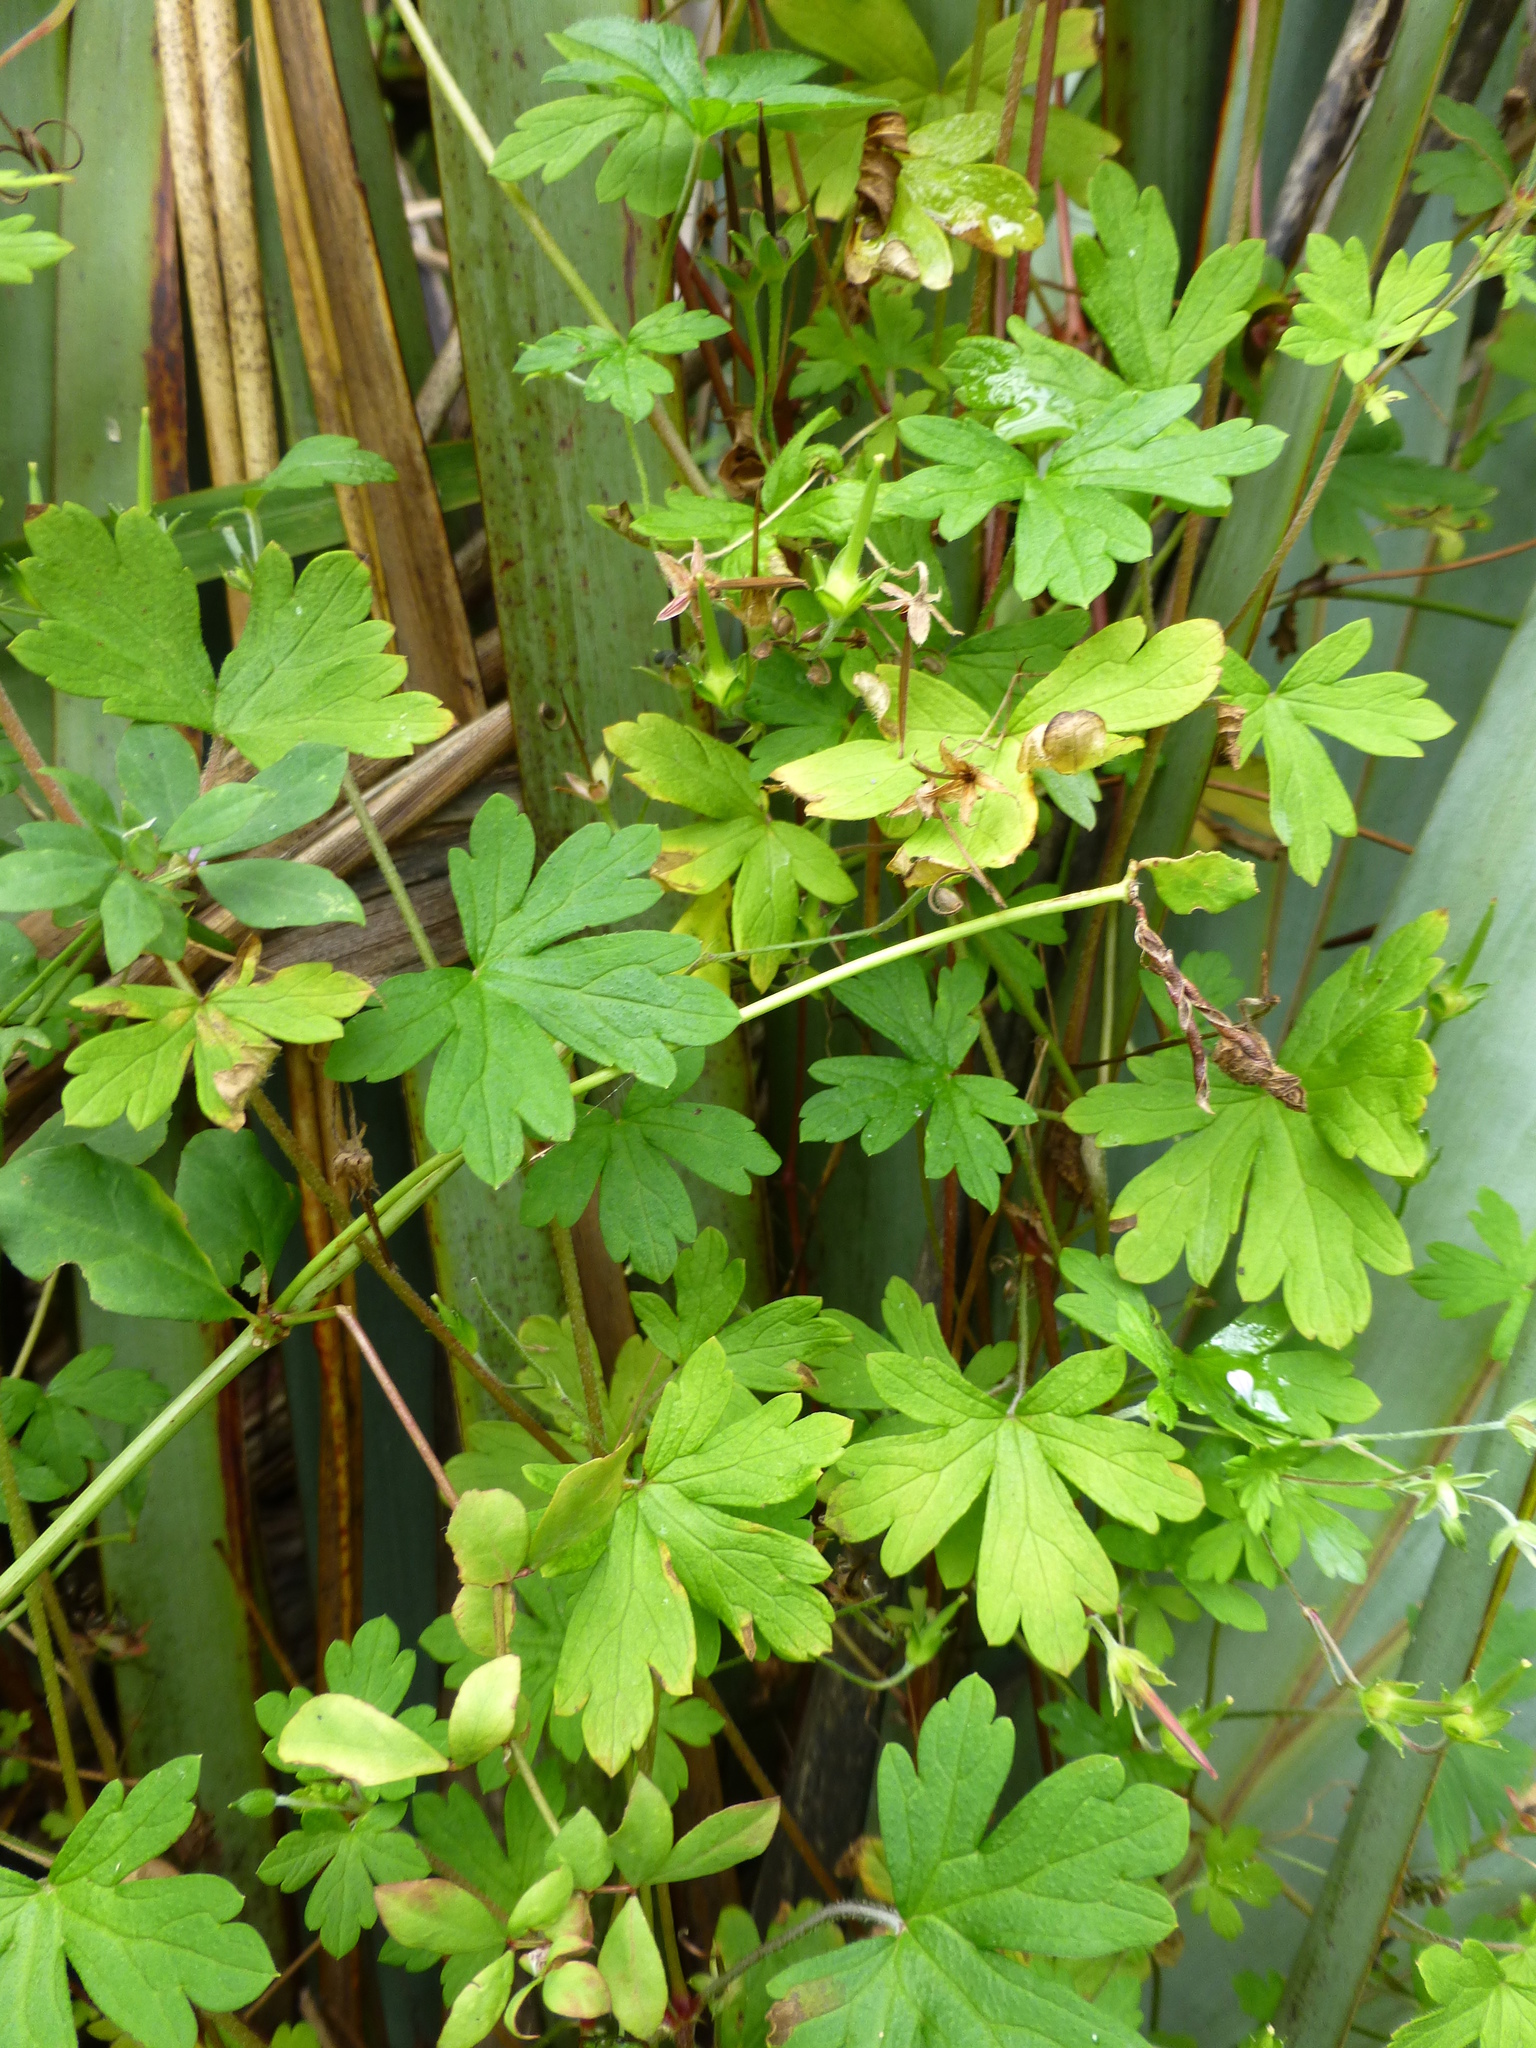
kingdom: Plantae
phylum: Tracheophyta
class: Magnoliopsida
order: Geraniales
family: Geraniaceae
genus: Geranium
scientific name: Geranium homeanum
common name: Australasian geranium
